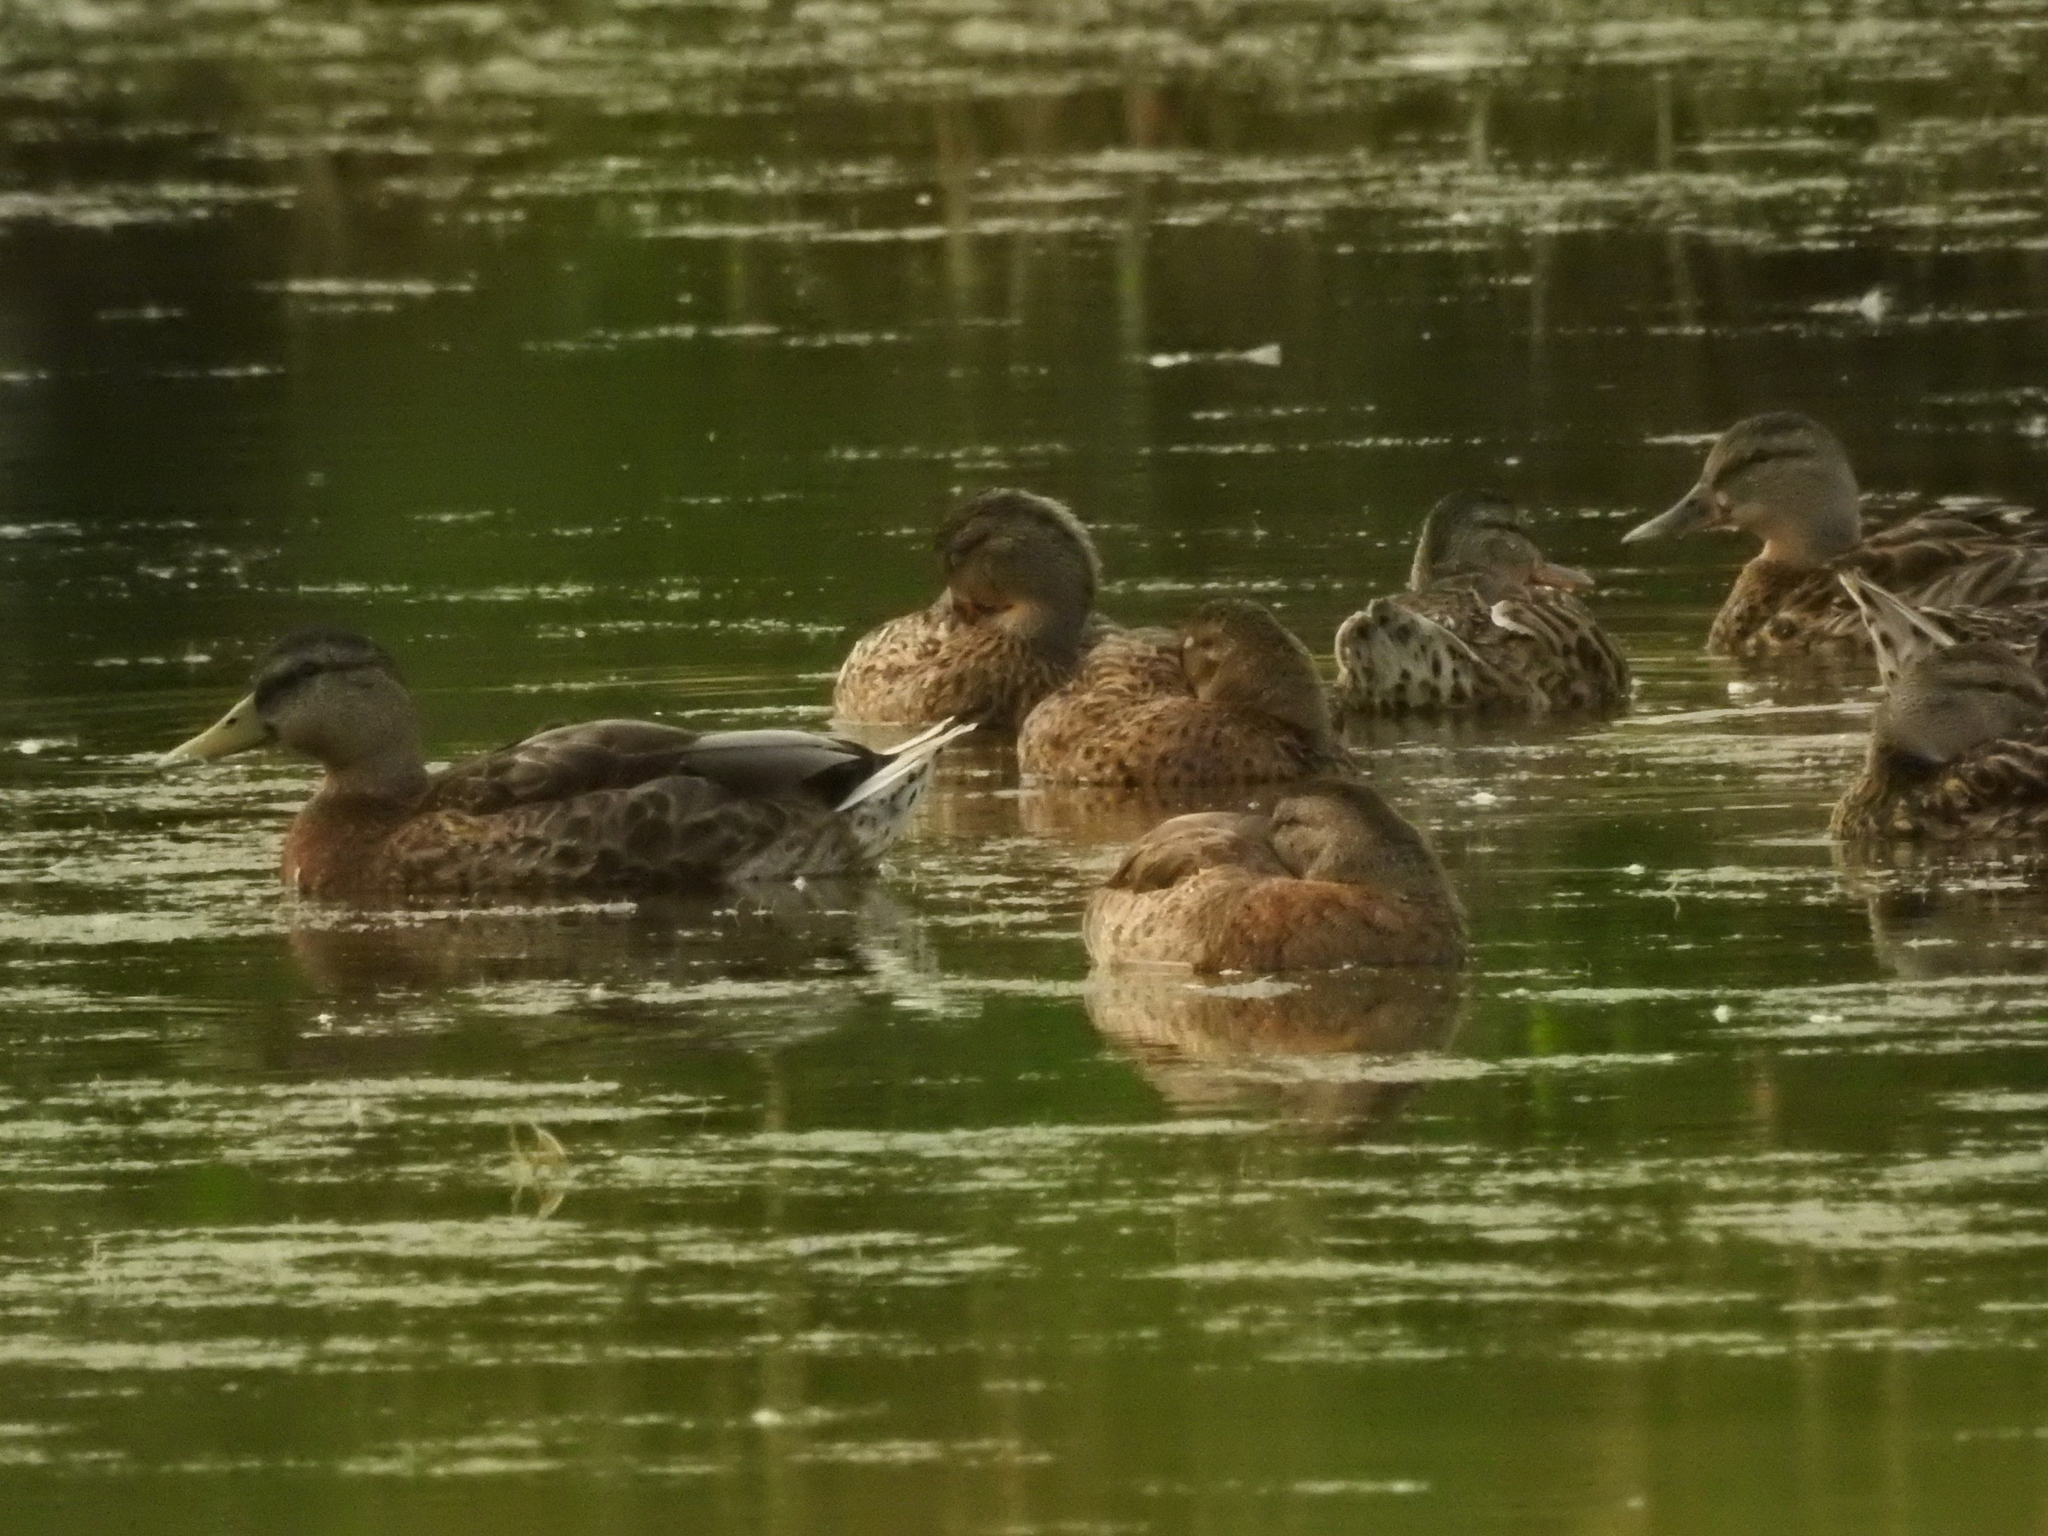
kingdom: Animalia
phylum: Chordata
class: Aves
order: Anseriformes
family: Anatidae
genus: Anas
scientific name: Anas platyrhynchos
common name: Mallard
